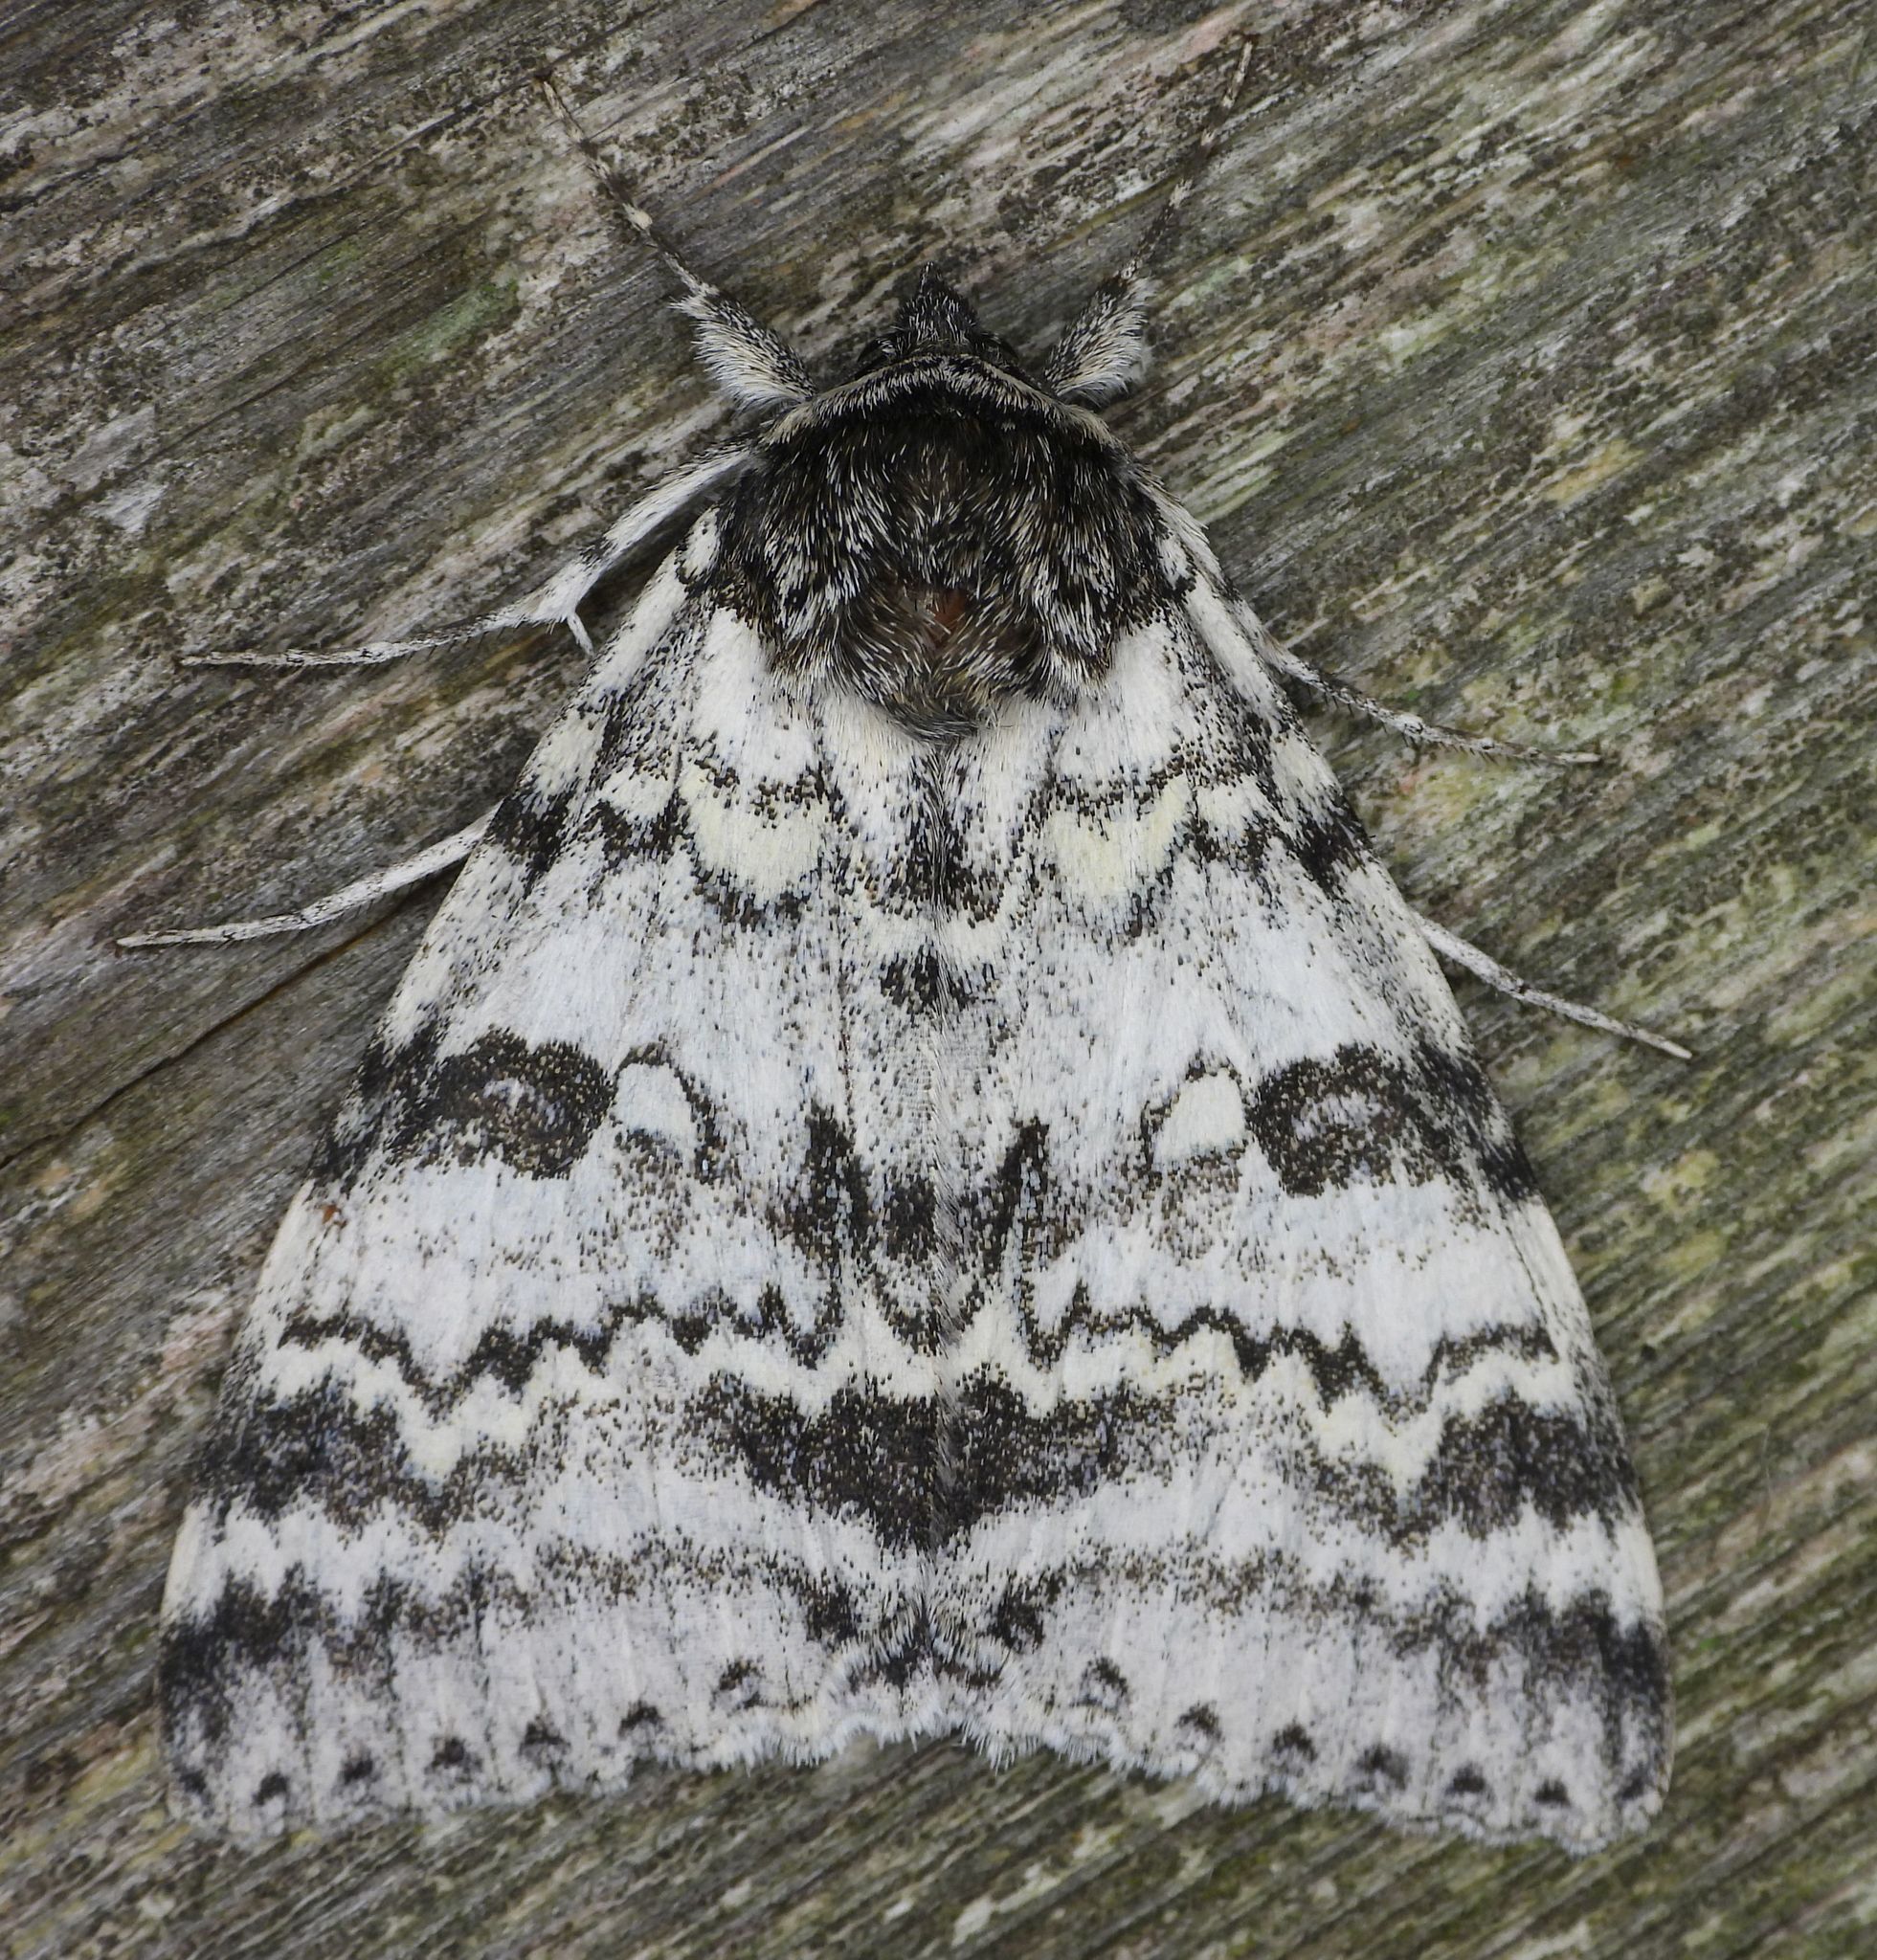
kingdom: Animalia
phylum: Arthropoda
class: Insecta
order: Lepidoptera
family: Erebidae
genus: Catocala
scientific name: Catocala relicta
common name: White underwing
